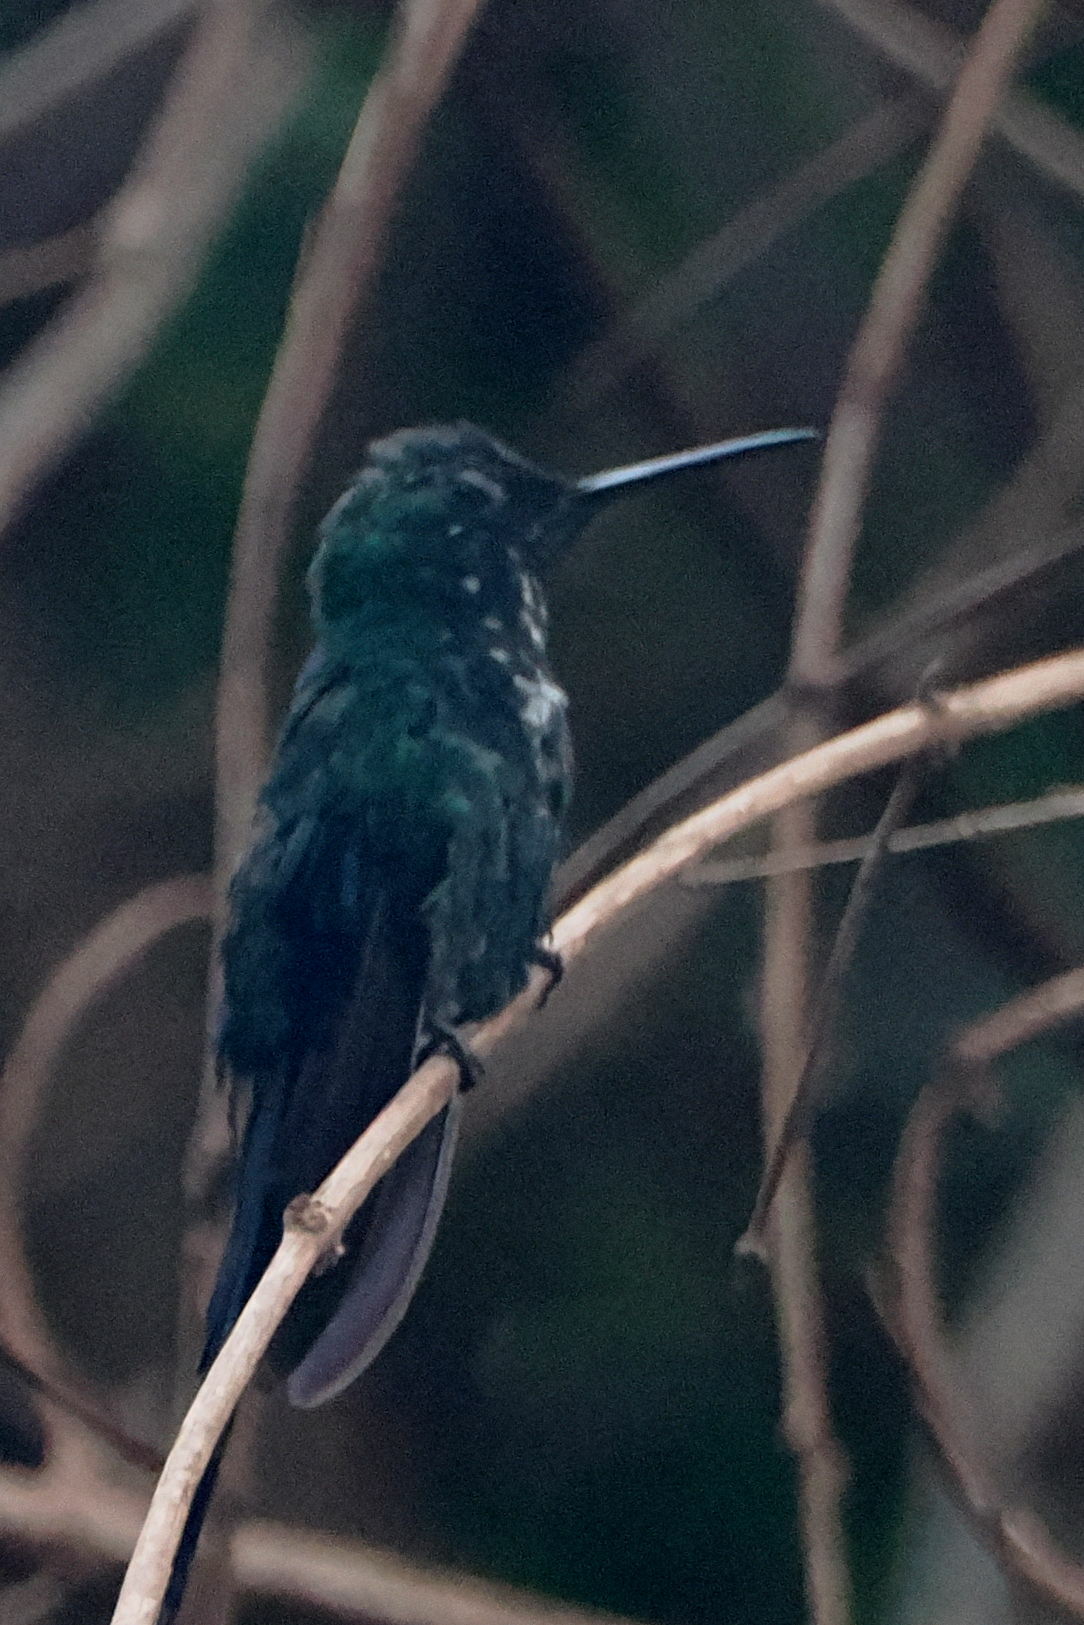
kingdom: Animalia
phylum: Chordata
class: Aves
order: Apodiformes
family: Trochilidae
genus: Thalurania
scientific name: Thalurania glaucopis
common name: Violet-capped woodnymph
